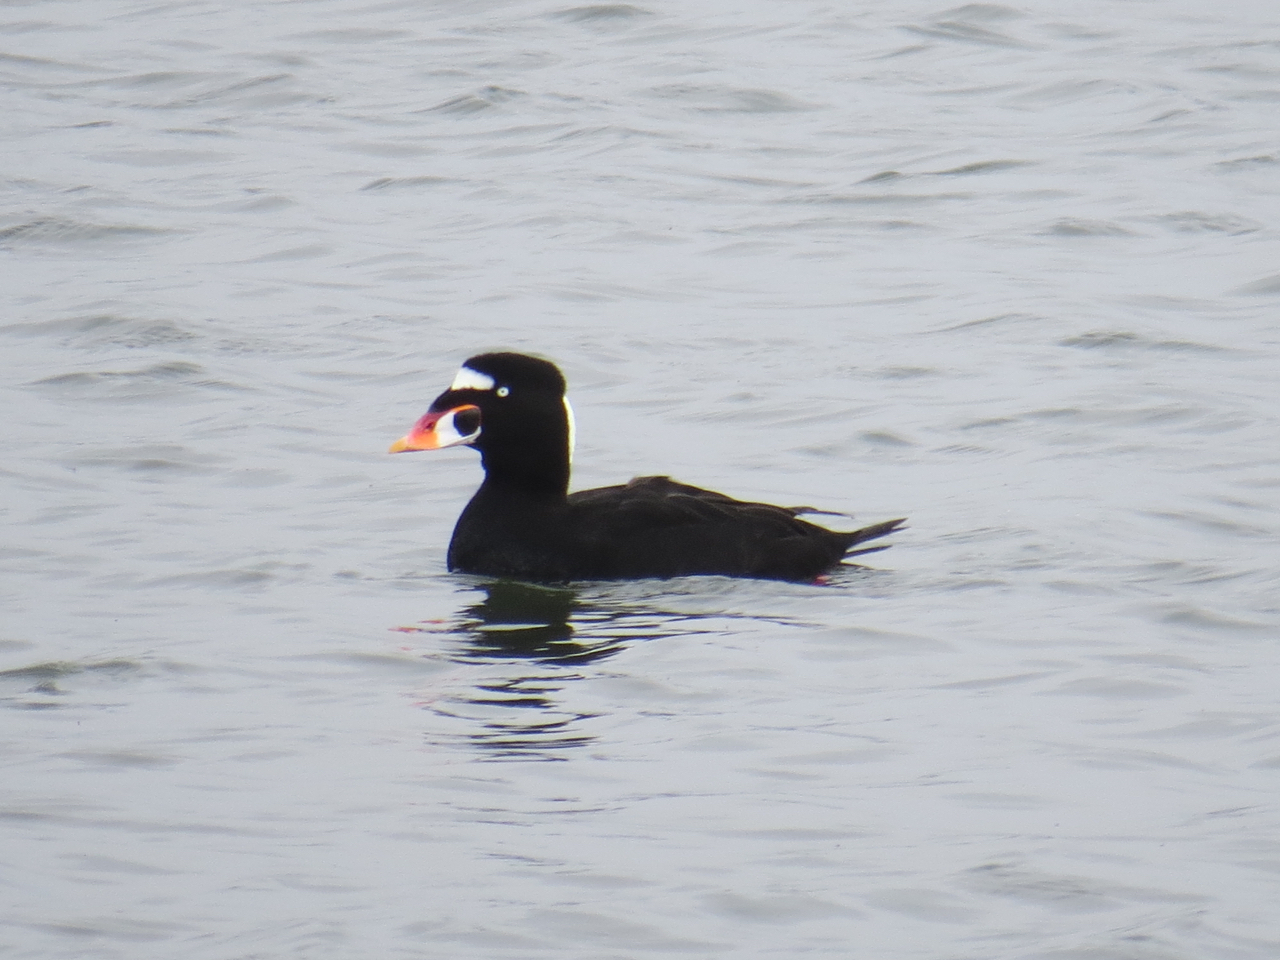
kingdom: Animalia
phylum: Chordata
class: Aves
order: Anseriformes
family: Anatidae
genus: Melanitta
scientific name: Melanitta perspicillata
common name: Surf scoter
